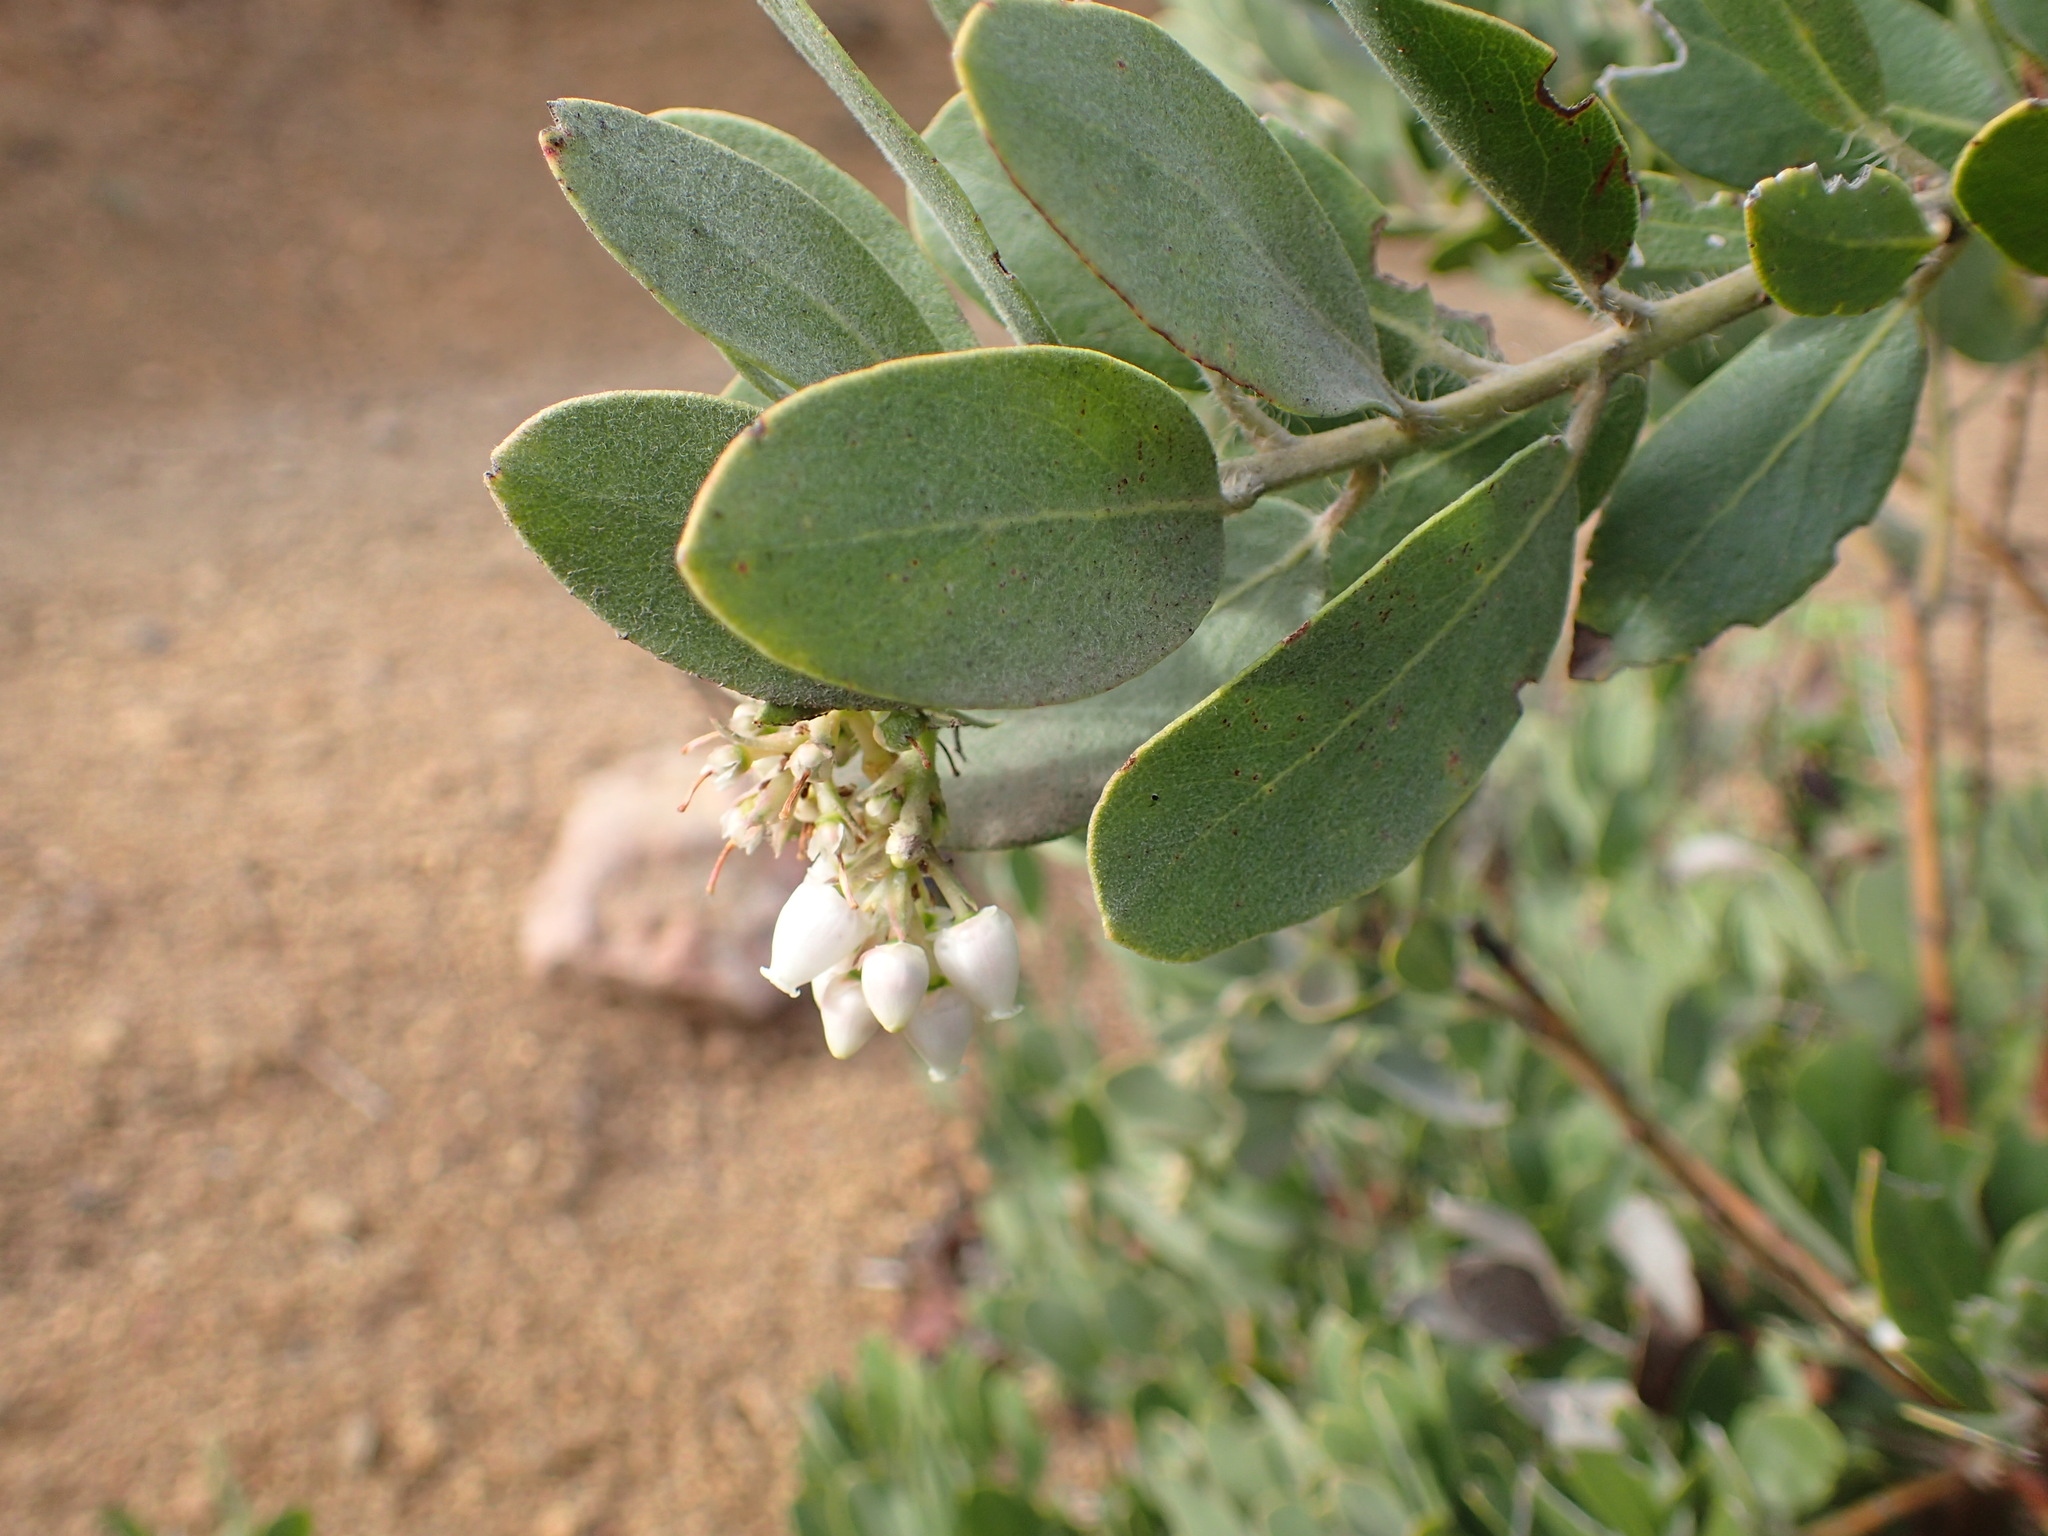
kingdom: Plantae
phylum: Tracheophyta
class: Magnoliopsida
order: Ericales
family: Ericaceae
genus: Arctostaphylos
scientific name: Arctostaphylos crustacea
